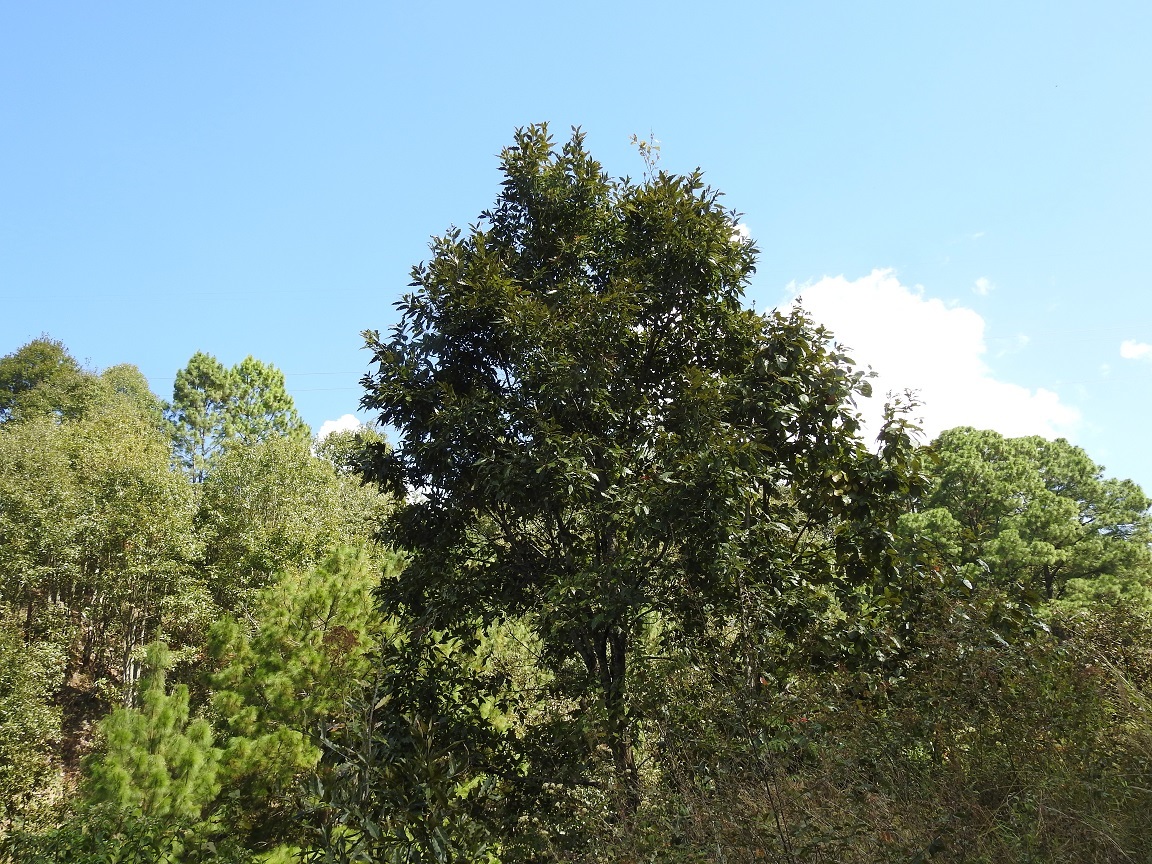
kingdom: Plantae
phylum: Tracheophyta
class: Magnoliopsida
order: Fagales
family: Fagaceae
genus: Quercus
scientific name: Quercus acutifolia
